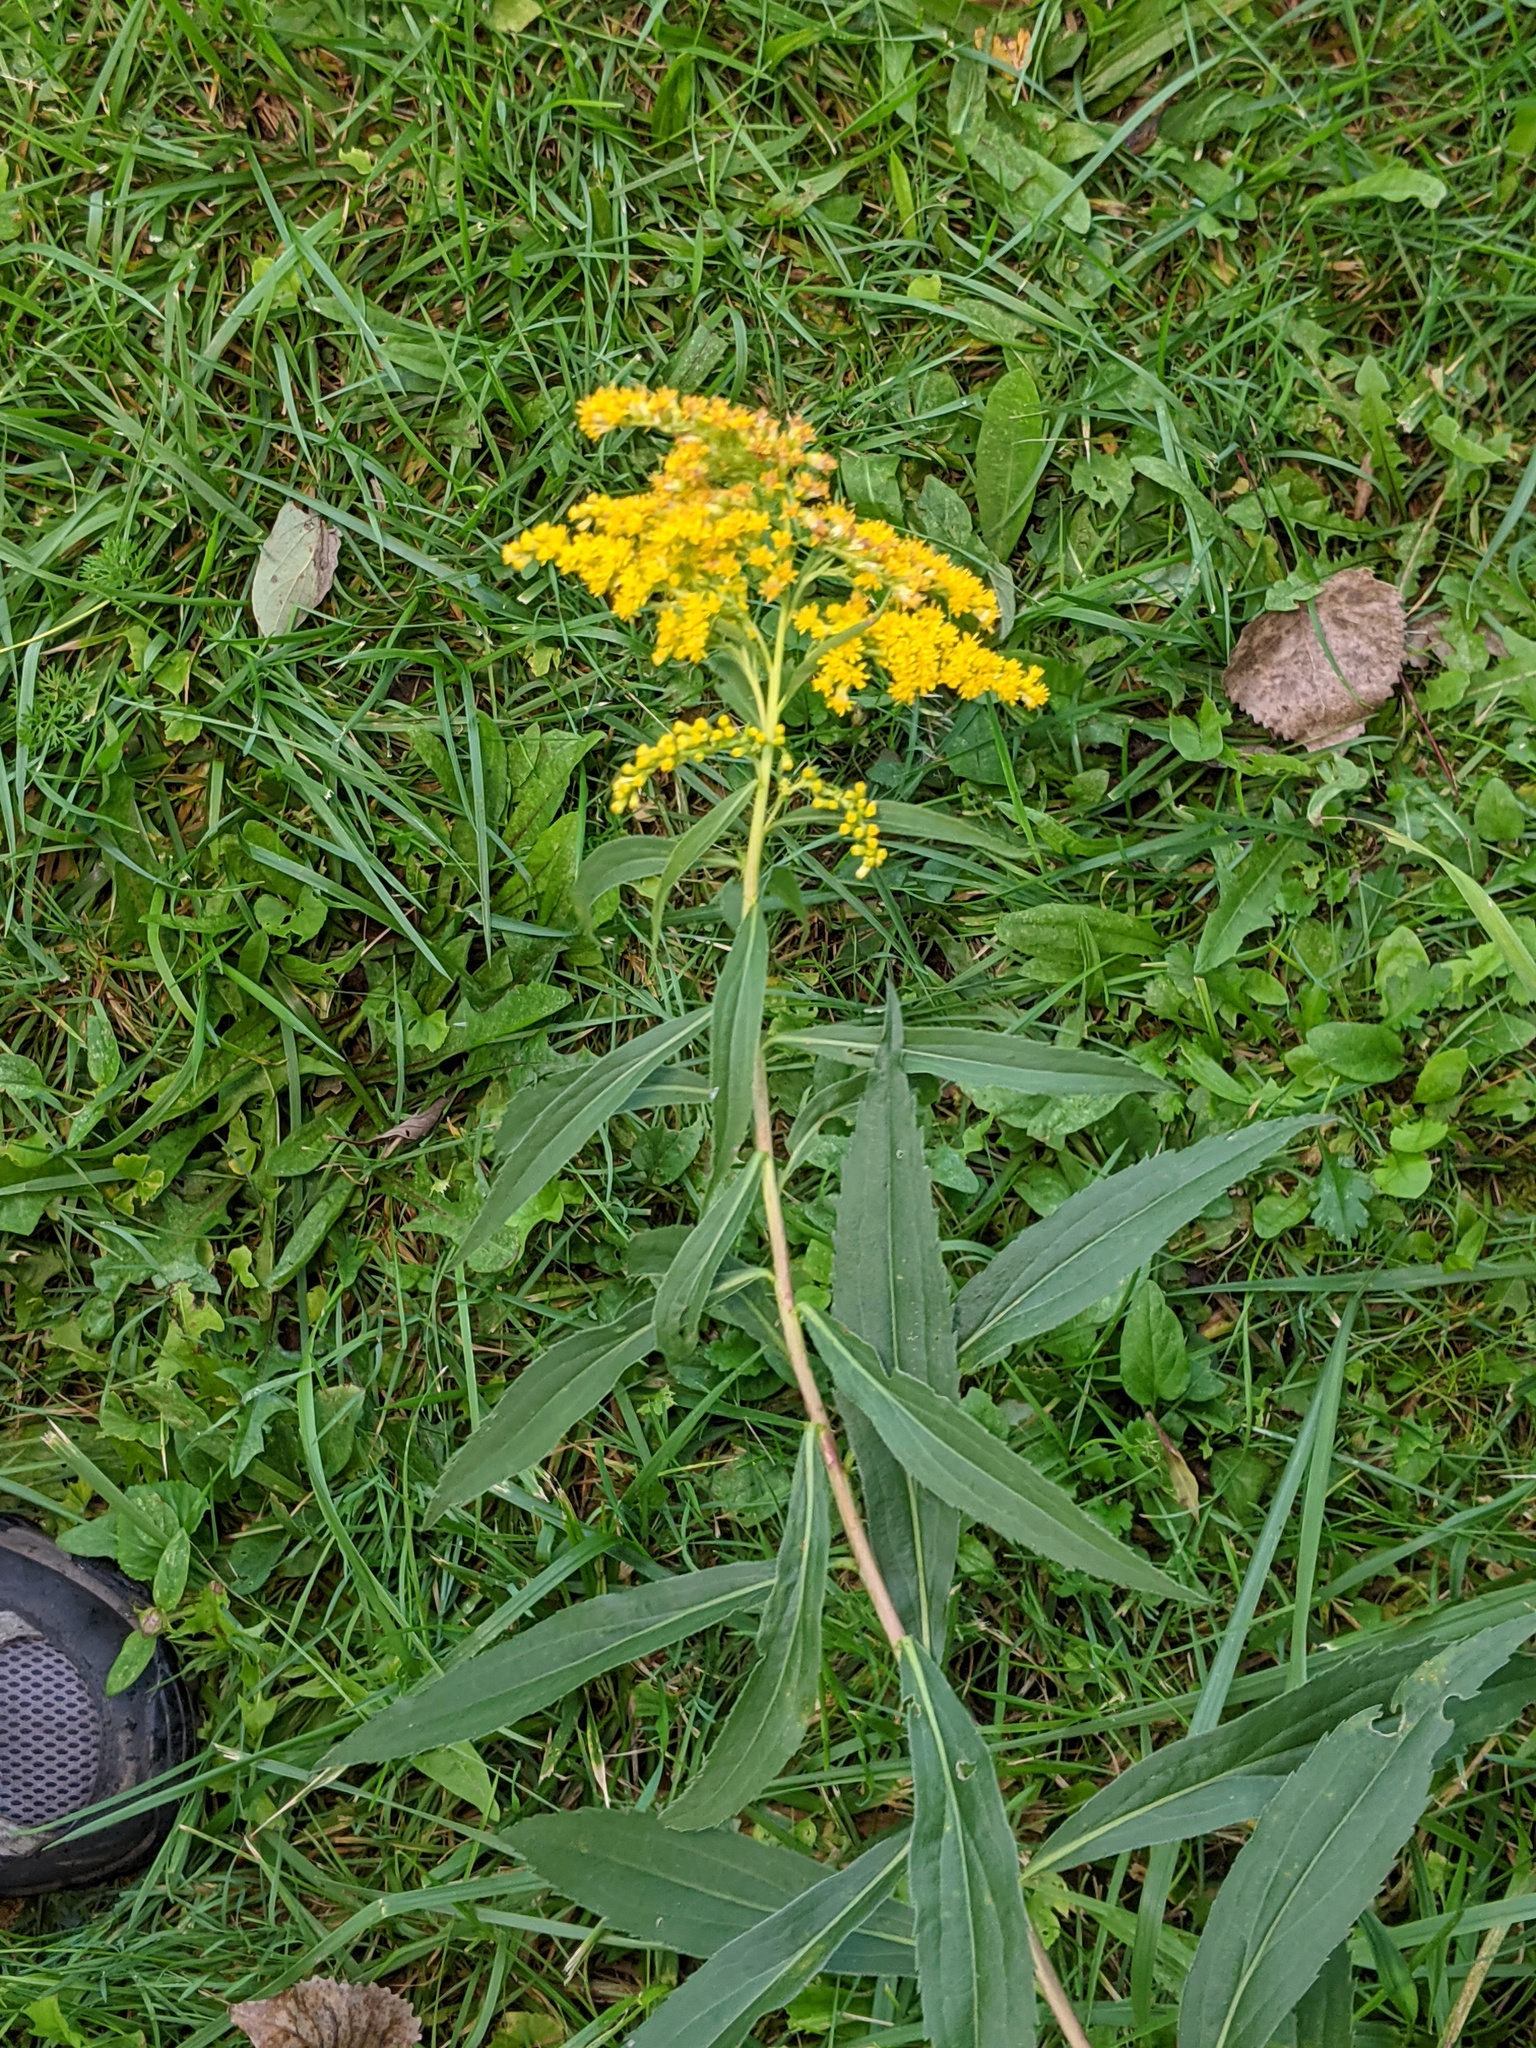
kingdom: Plantae
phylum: Tracheophyta
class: Magnoliopsida
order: Asterales
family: Asteraceae
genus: Solidago
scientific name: Solidago gigantea
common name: Giant goldenrod
